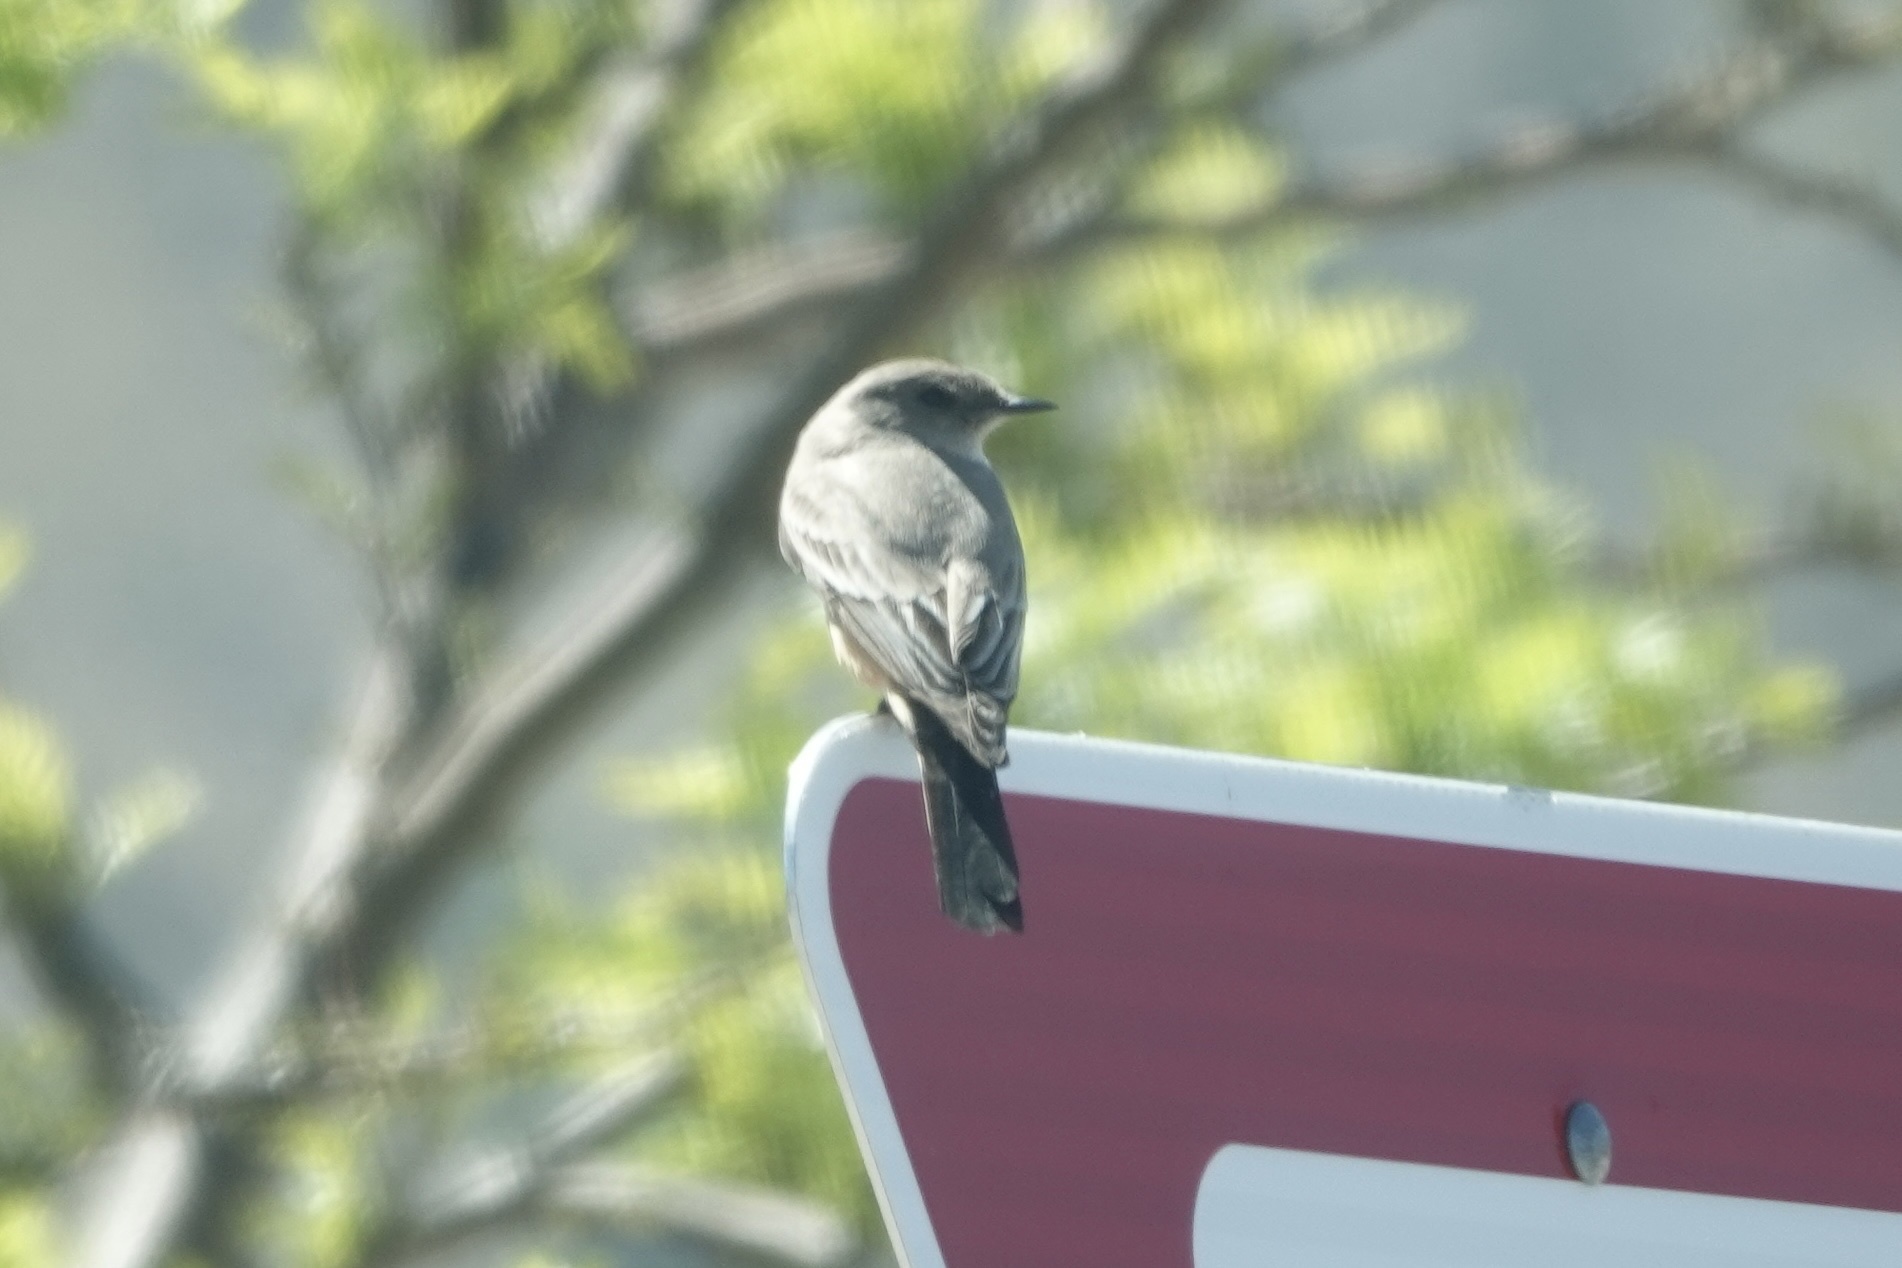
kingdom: Animalia
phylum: Chordata
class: Aves
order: Passeriformes
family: Tyrannidae
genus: Sayornis
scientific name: Sayornis saya
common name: Say's phoebe
